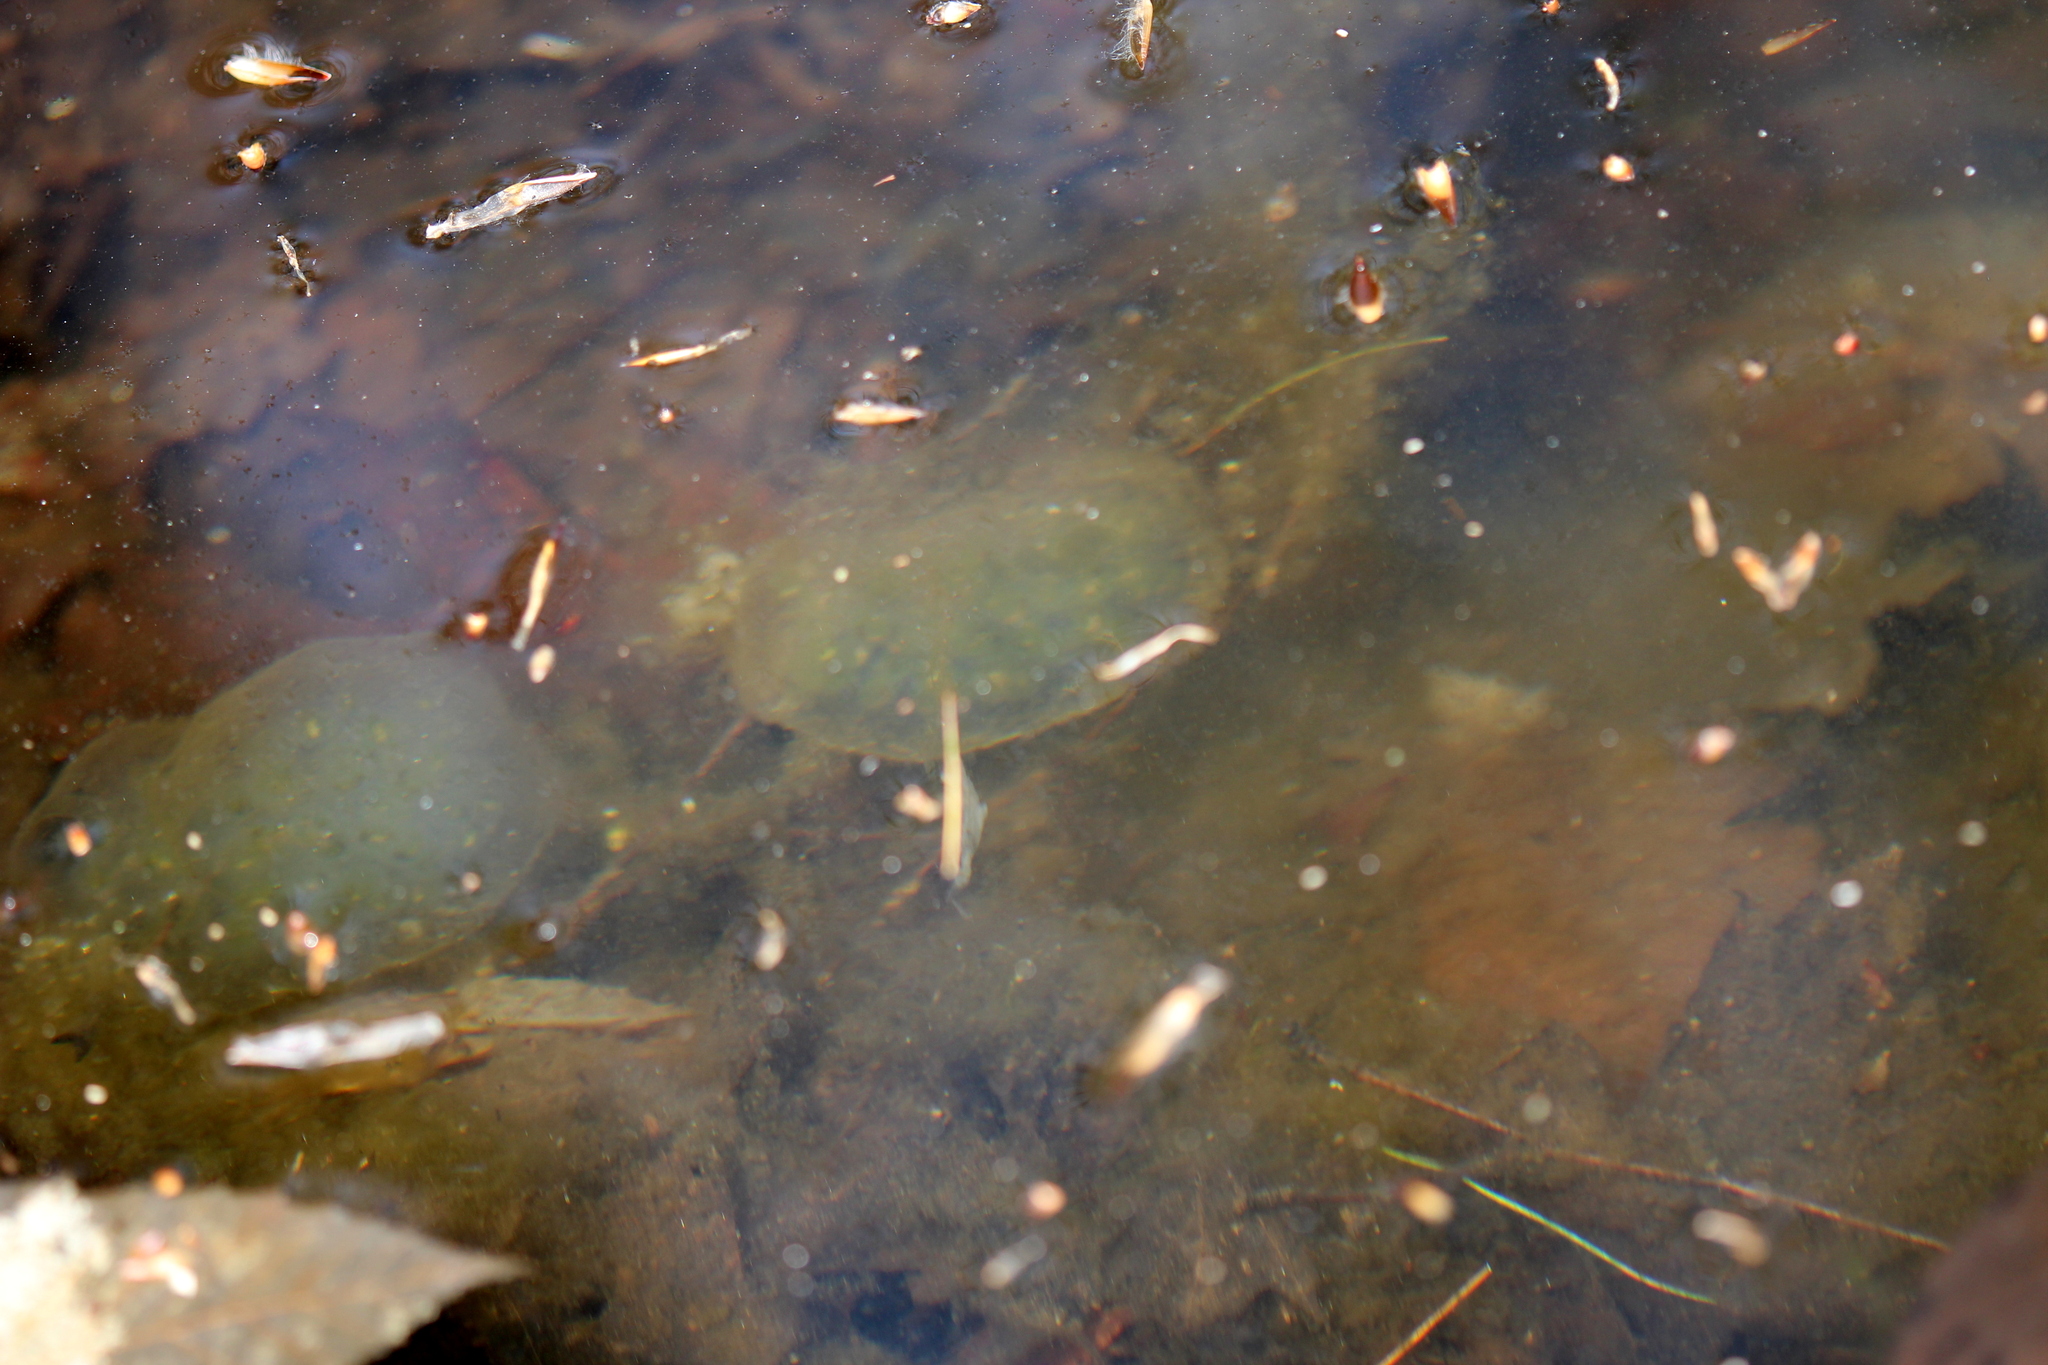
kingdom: Animalia
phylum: Chordata
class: Amphibia
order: Caudata
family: Ambystomatidae
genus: Ambystoma
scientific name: Ambystoma maculatum
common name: Spotted salamander
